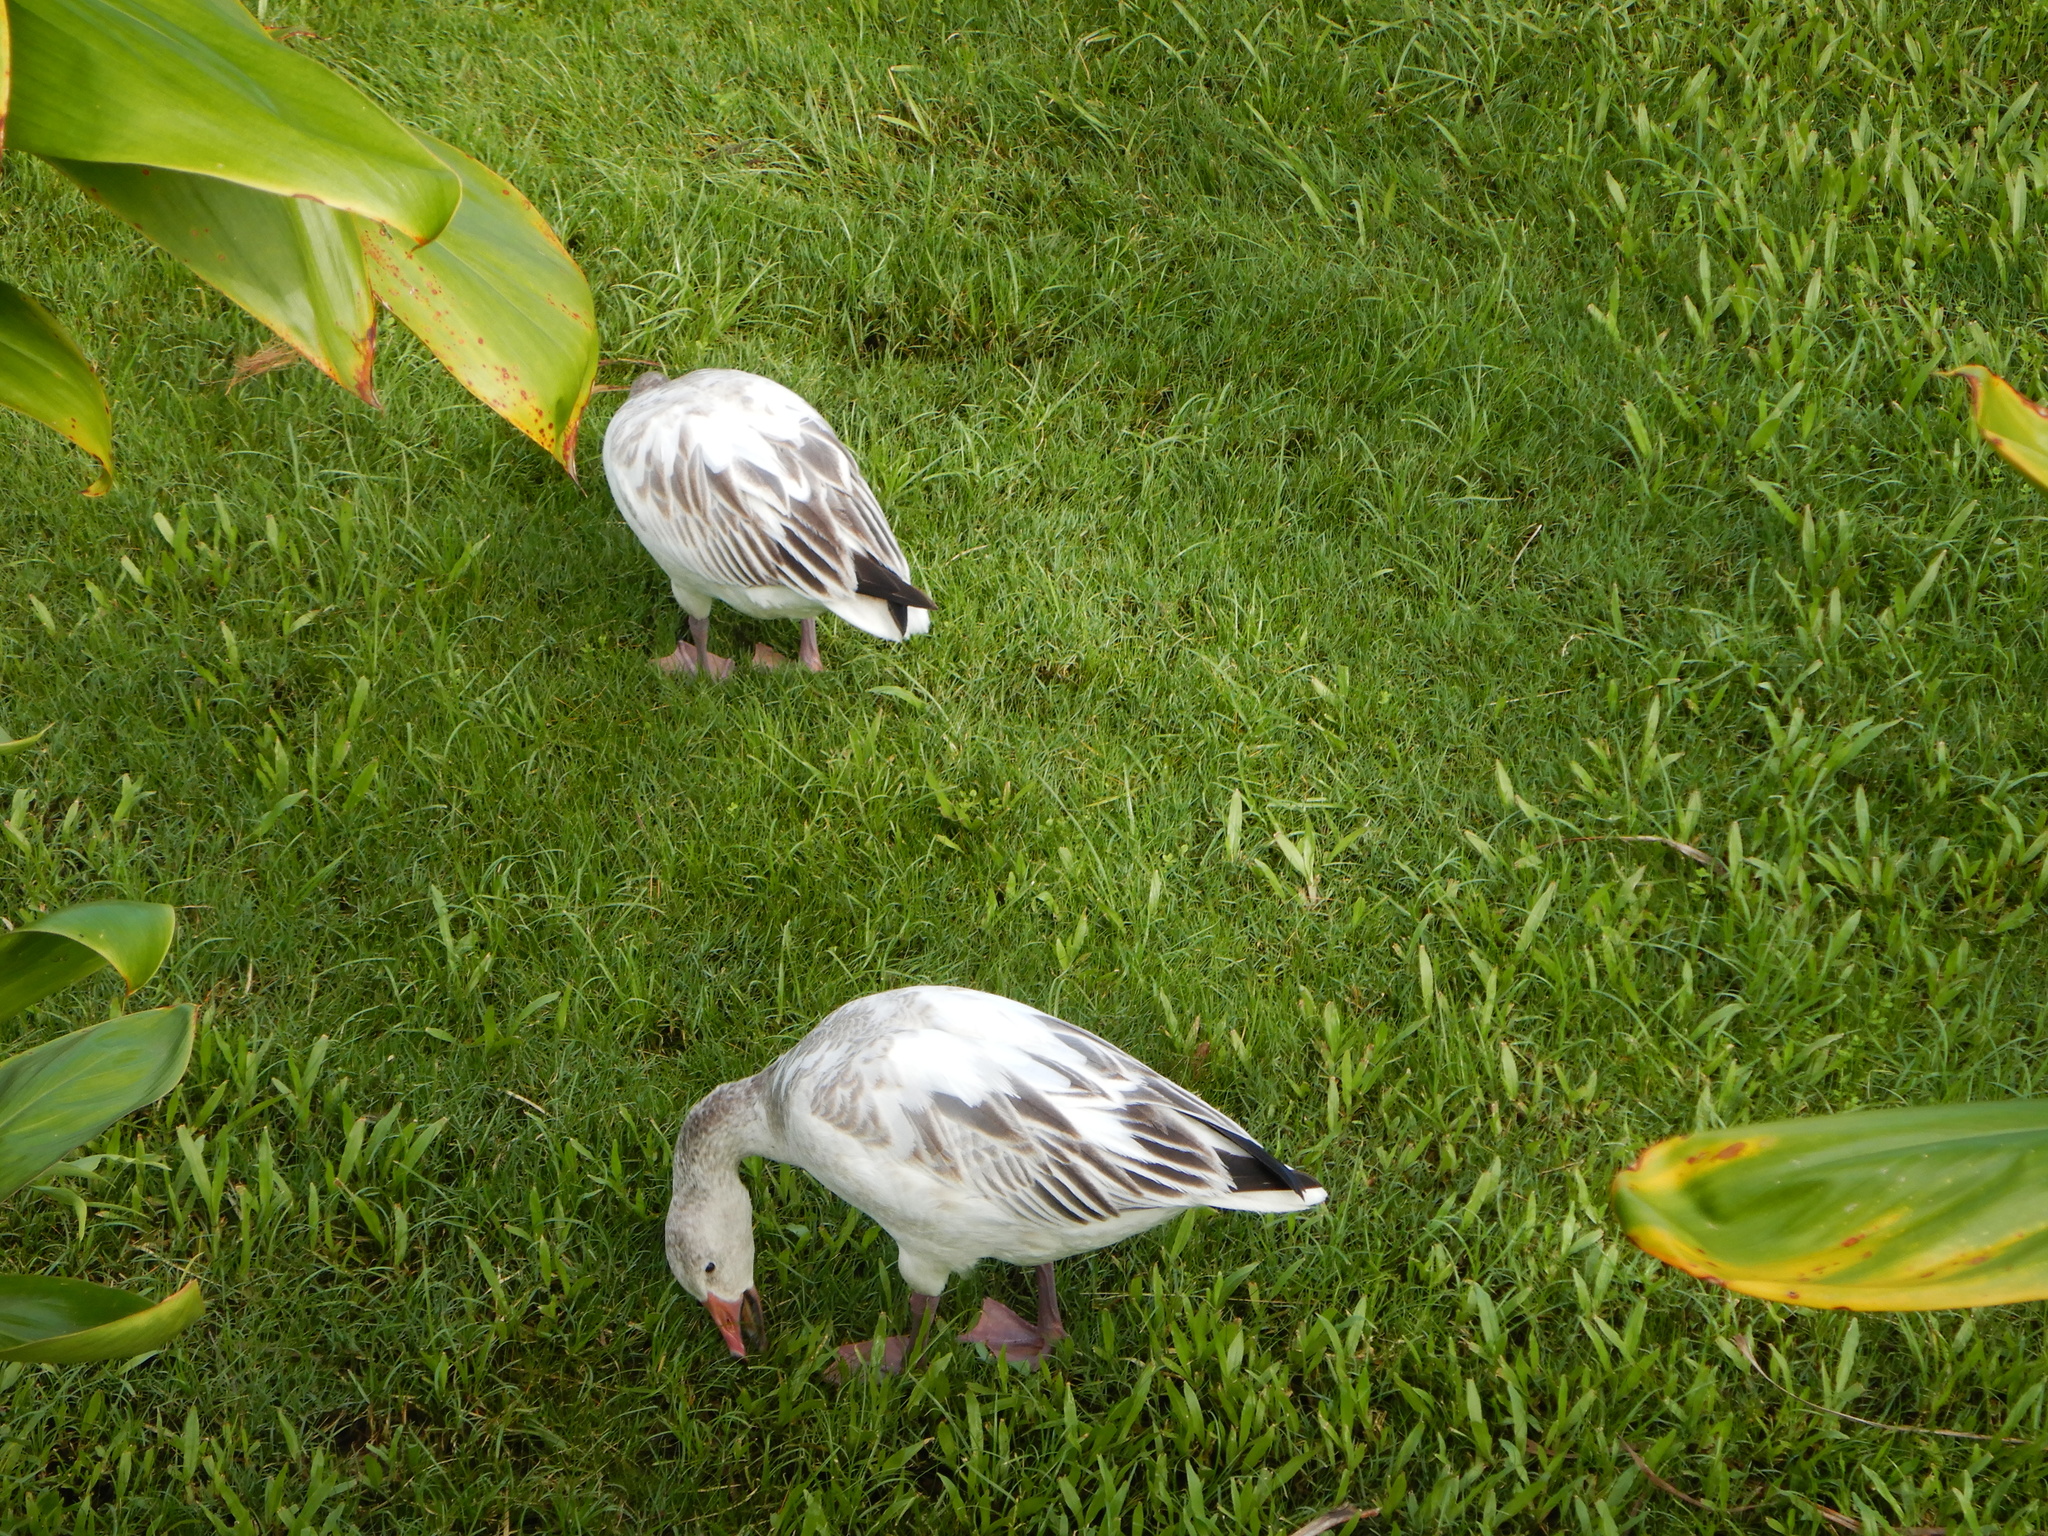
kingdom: Animalia
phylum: Chordata
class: Aves
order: Anseriformes
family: Anatidae
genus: Anser
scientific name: Anser caerulescens
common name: Snow goose
